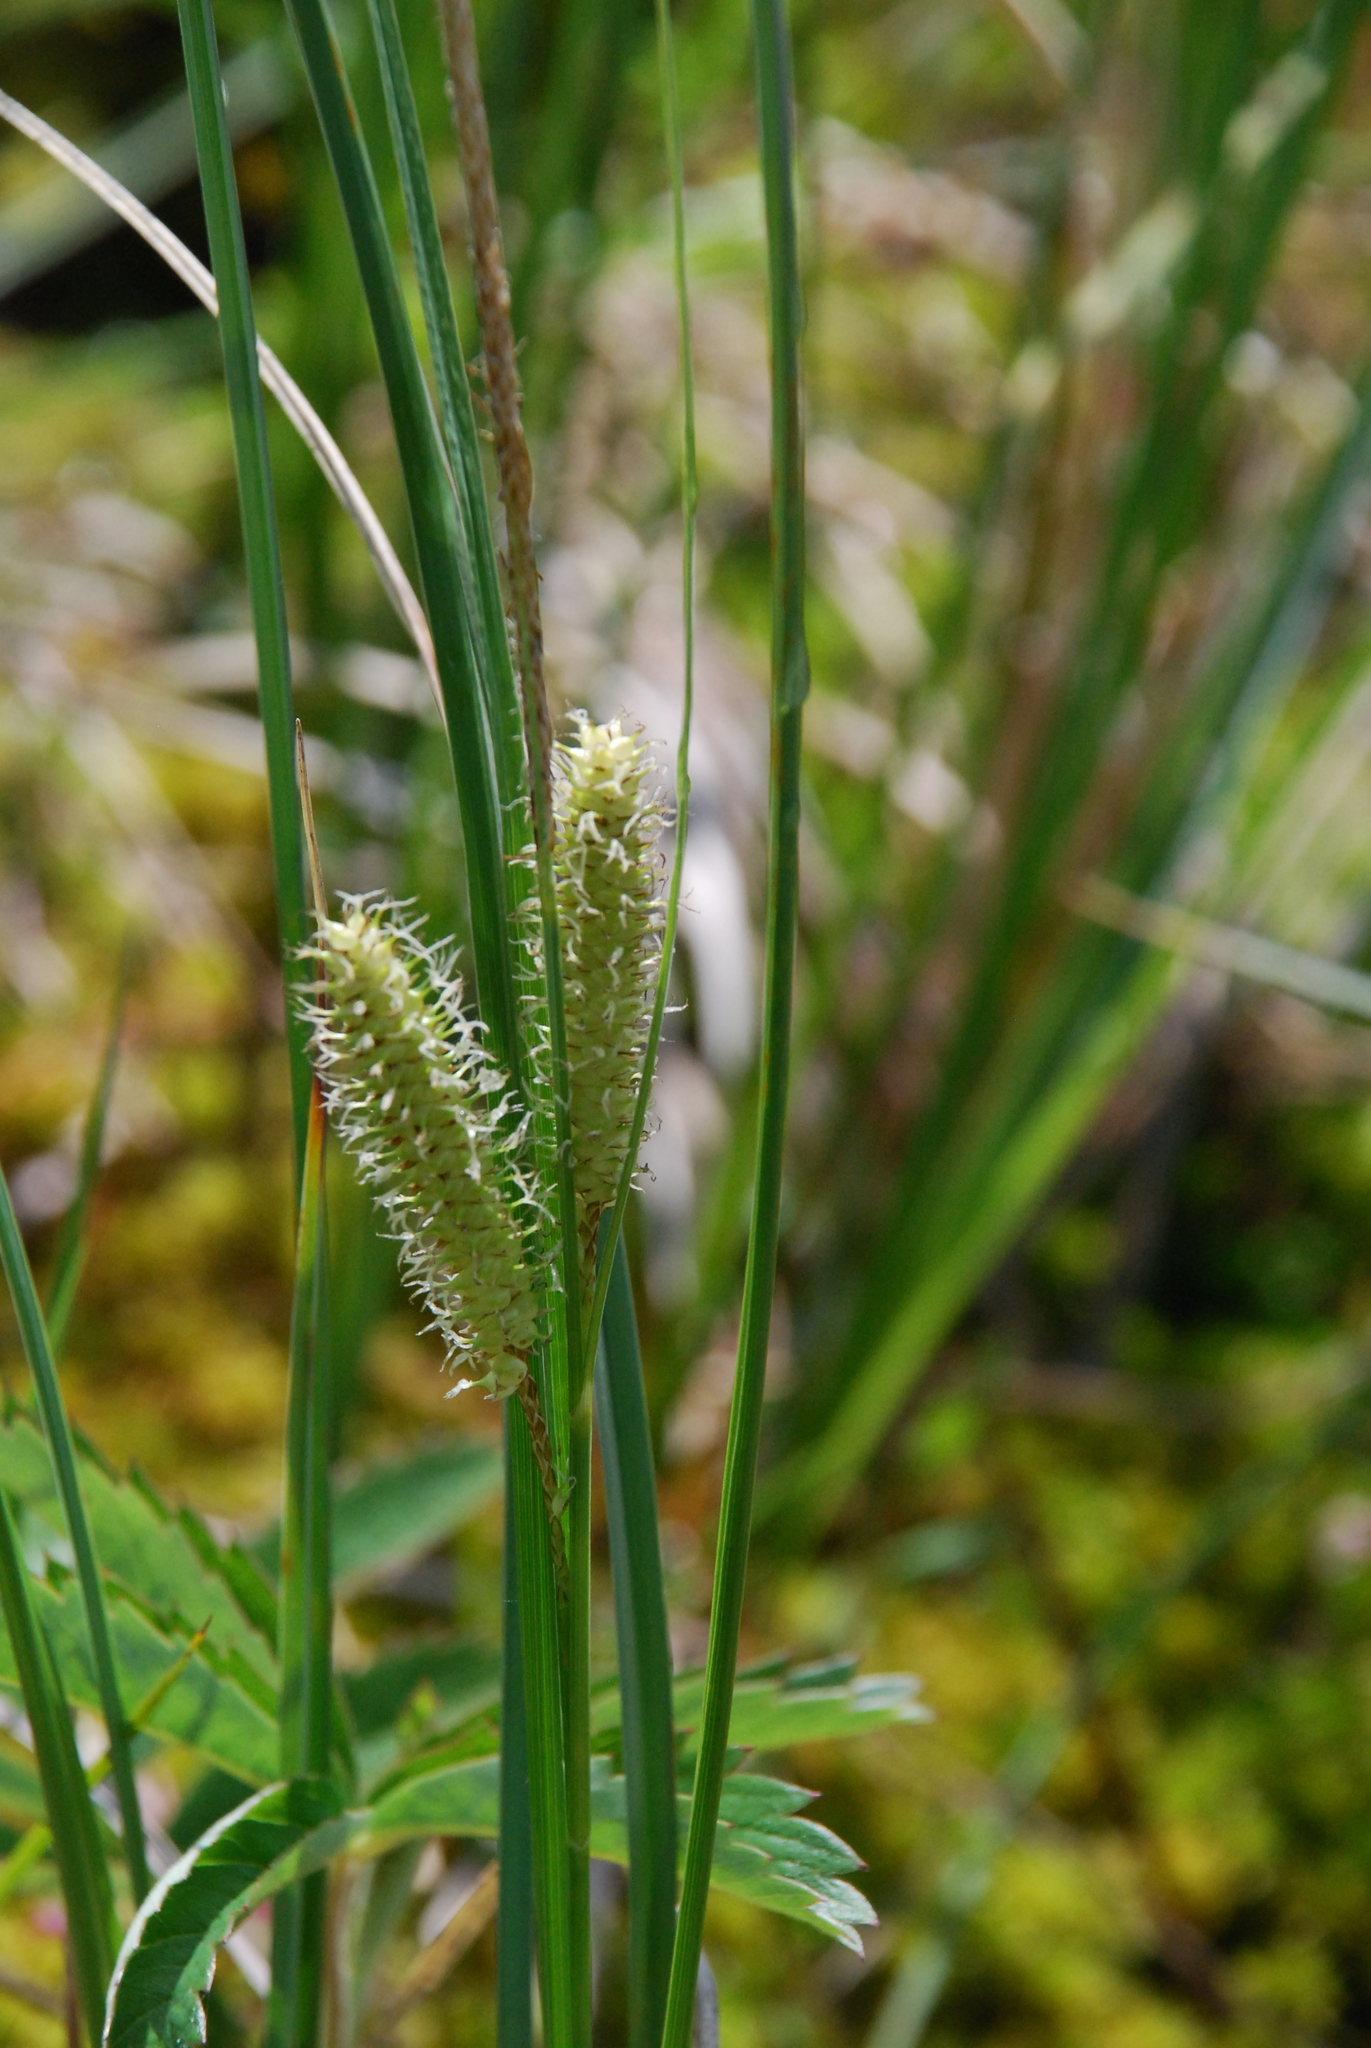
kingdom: Plantae
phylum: Tracheophyta
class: Liliopsida
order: Poales
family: Cyperaceae
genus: Carex
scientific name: Carex rostrata
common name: Bottle sedge
